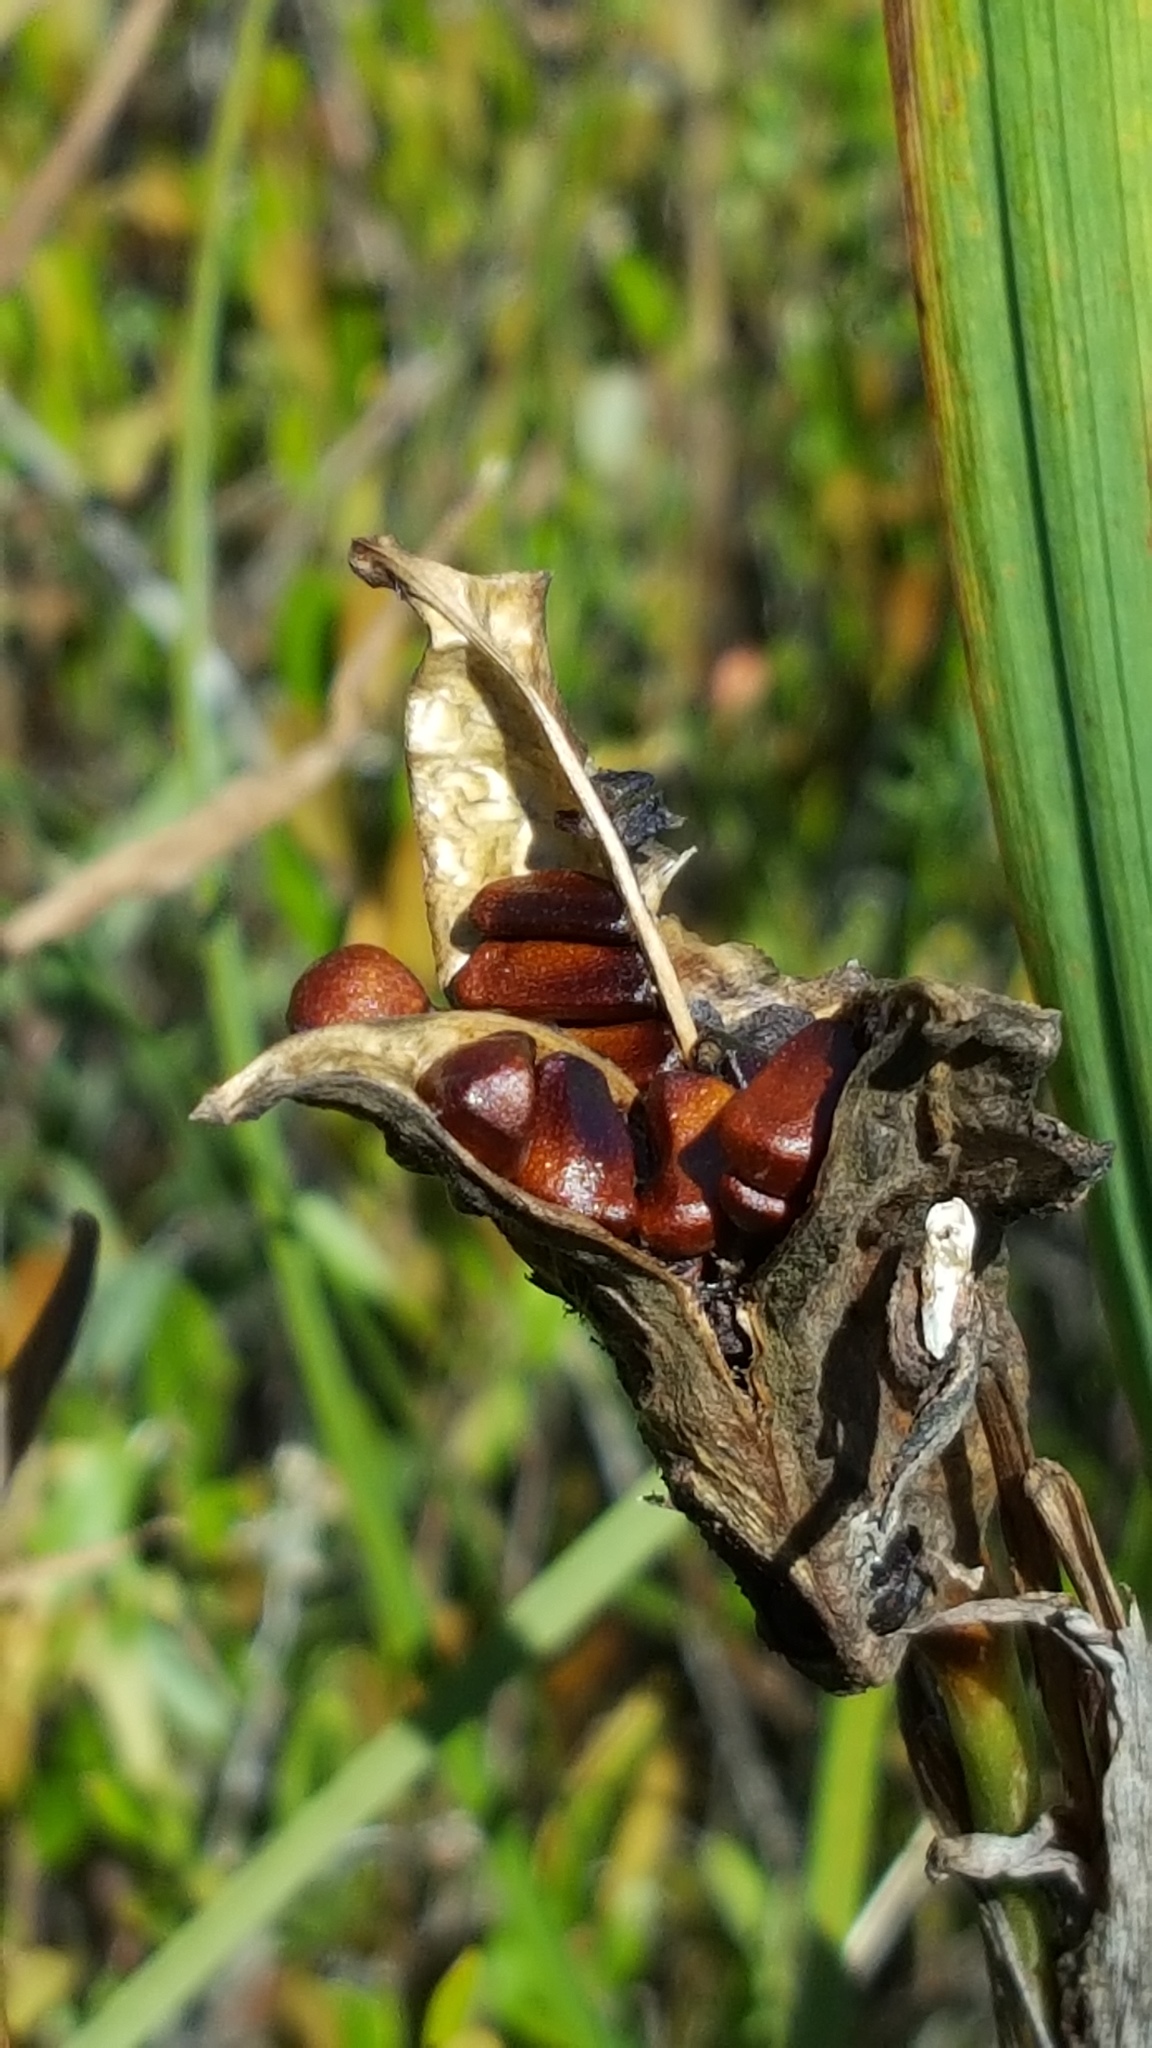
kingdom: Plantae
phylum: Tracheophyta
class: Liliopsida
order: Asparagales
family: Iridaceae
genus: Iris
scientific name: Iris versicolor
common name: Purple iris
